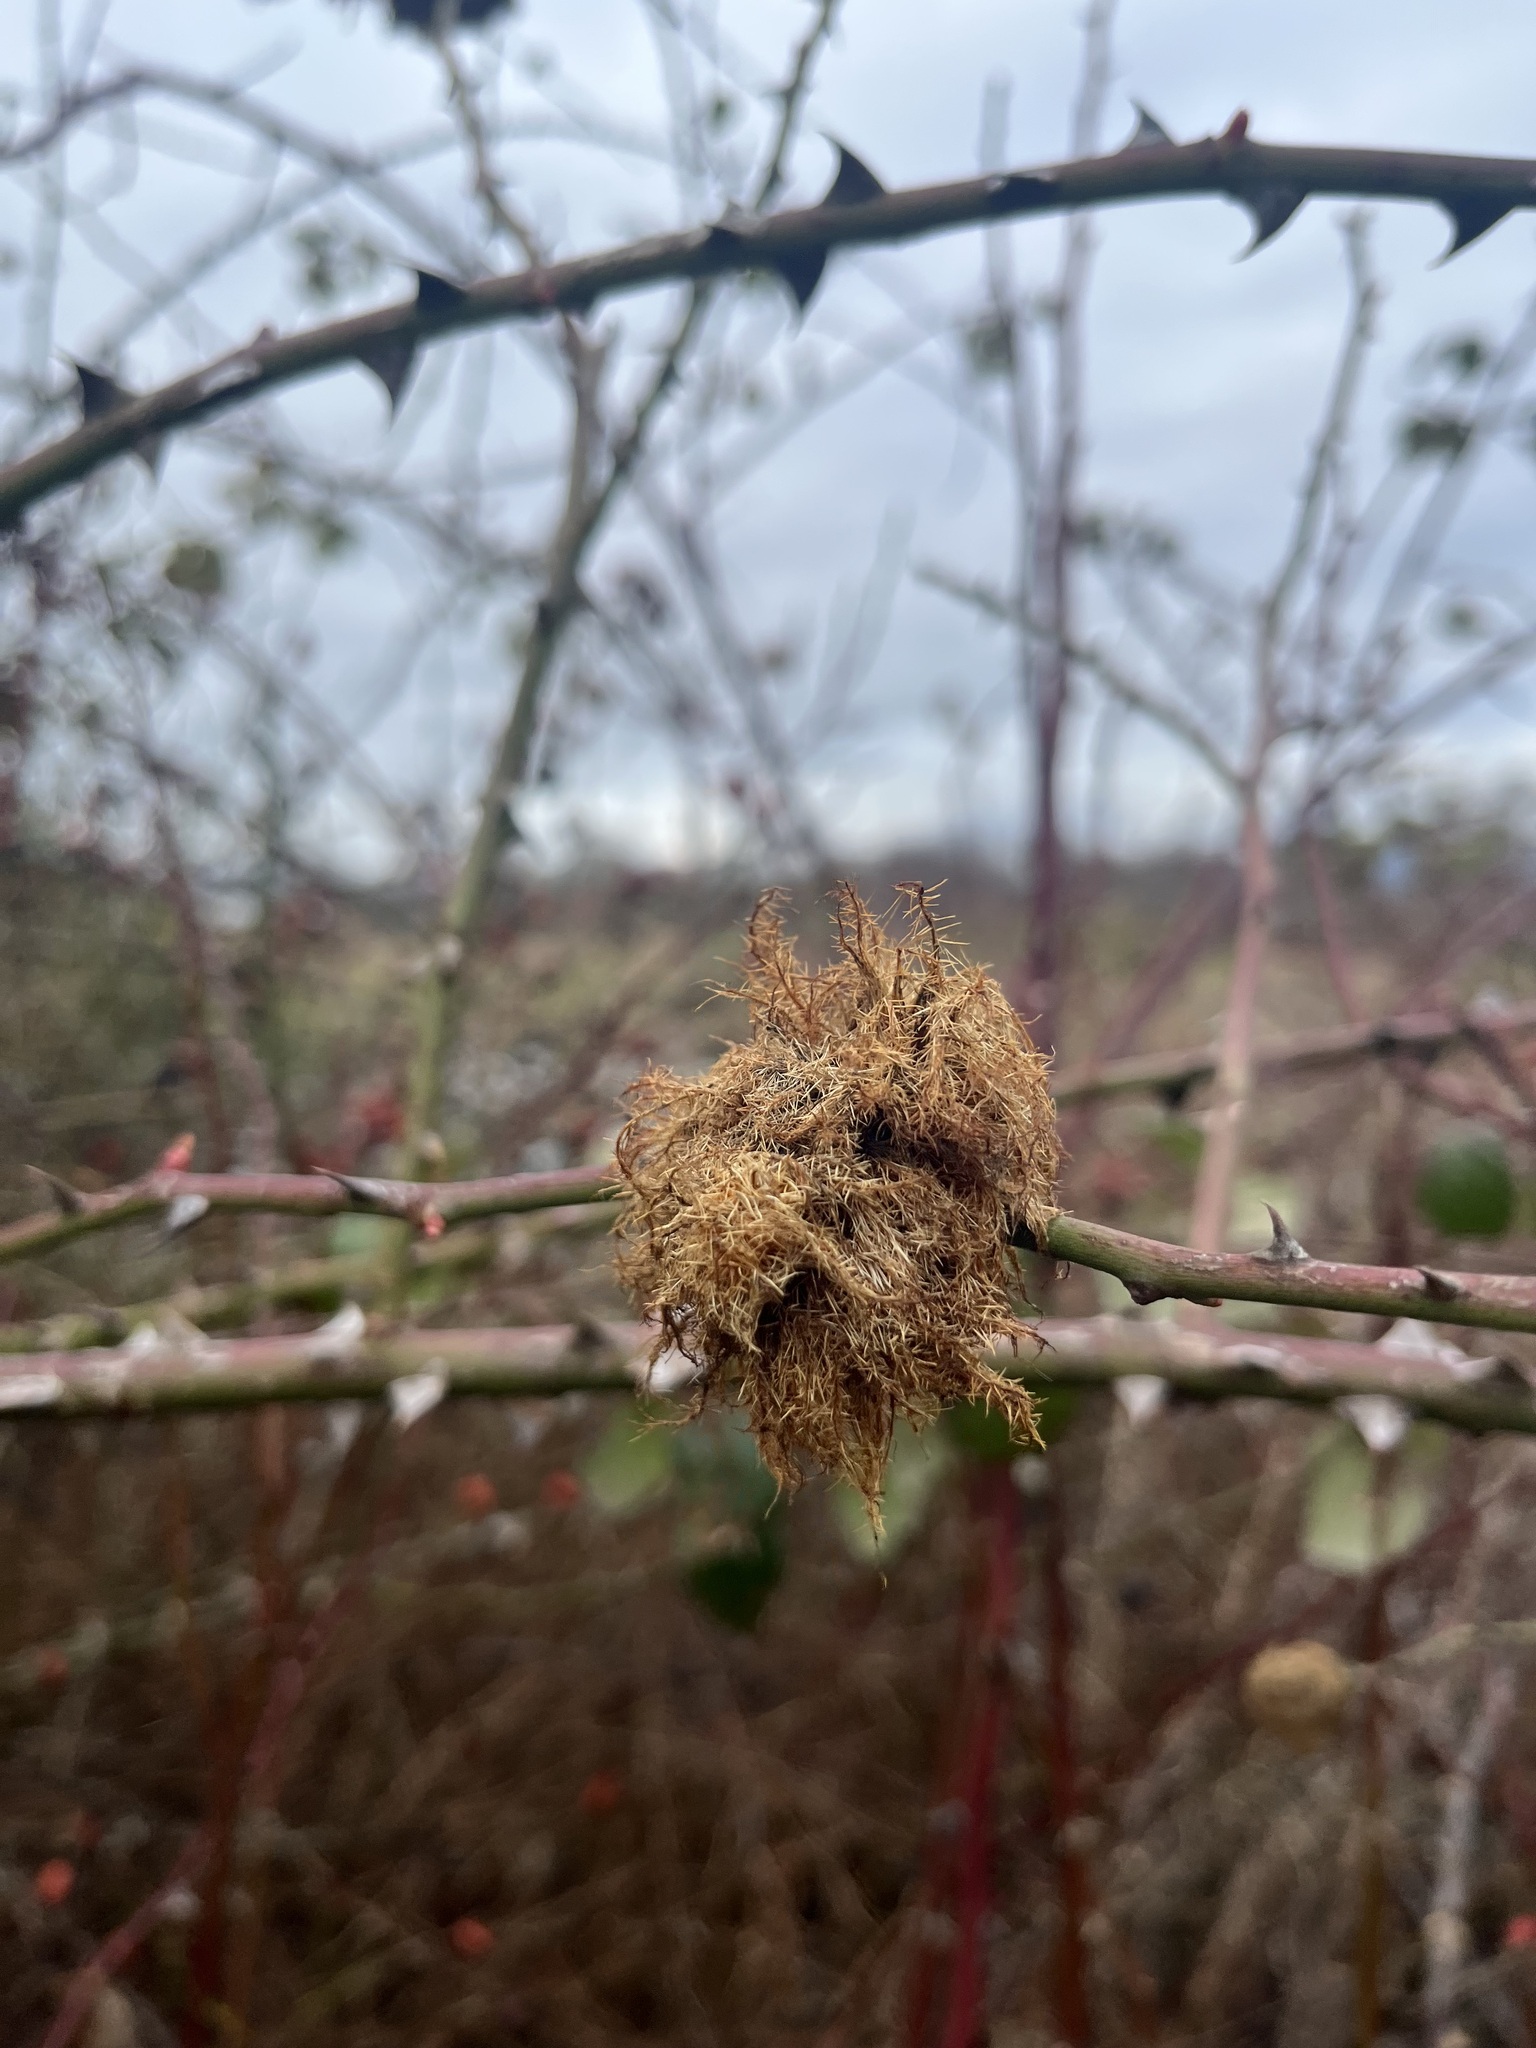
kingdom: Animalia
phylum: Arthropoda
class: Insecta
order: Hymenoptera
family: Cynipidae
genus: Diplolepis
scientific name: Diplolepis rosae
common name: Bedeguar gall
